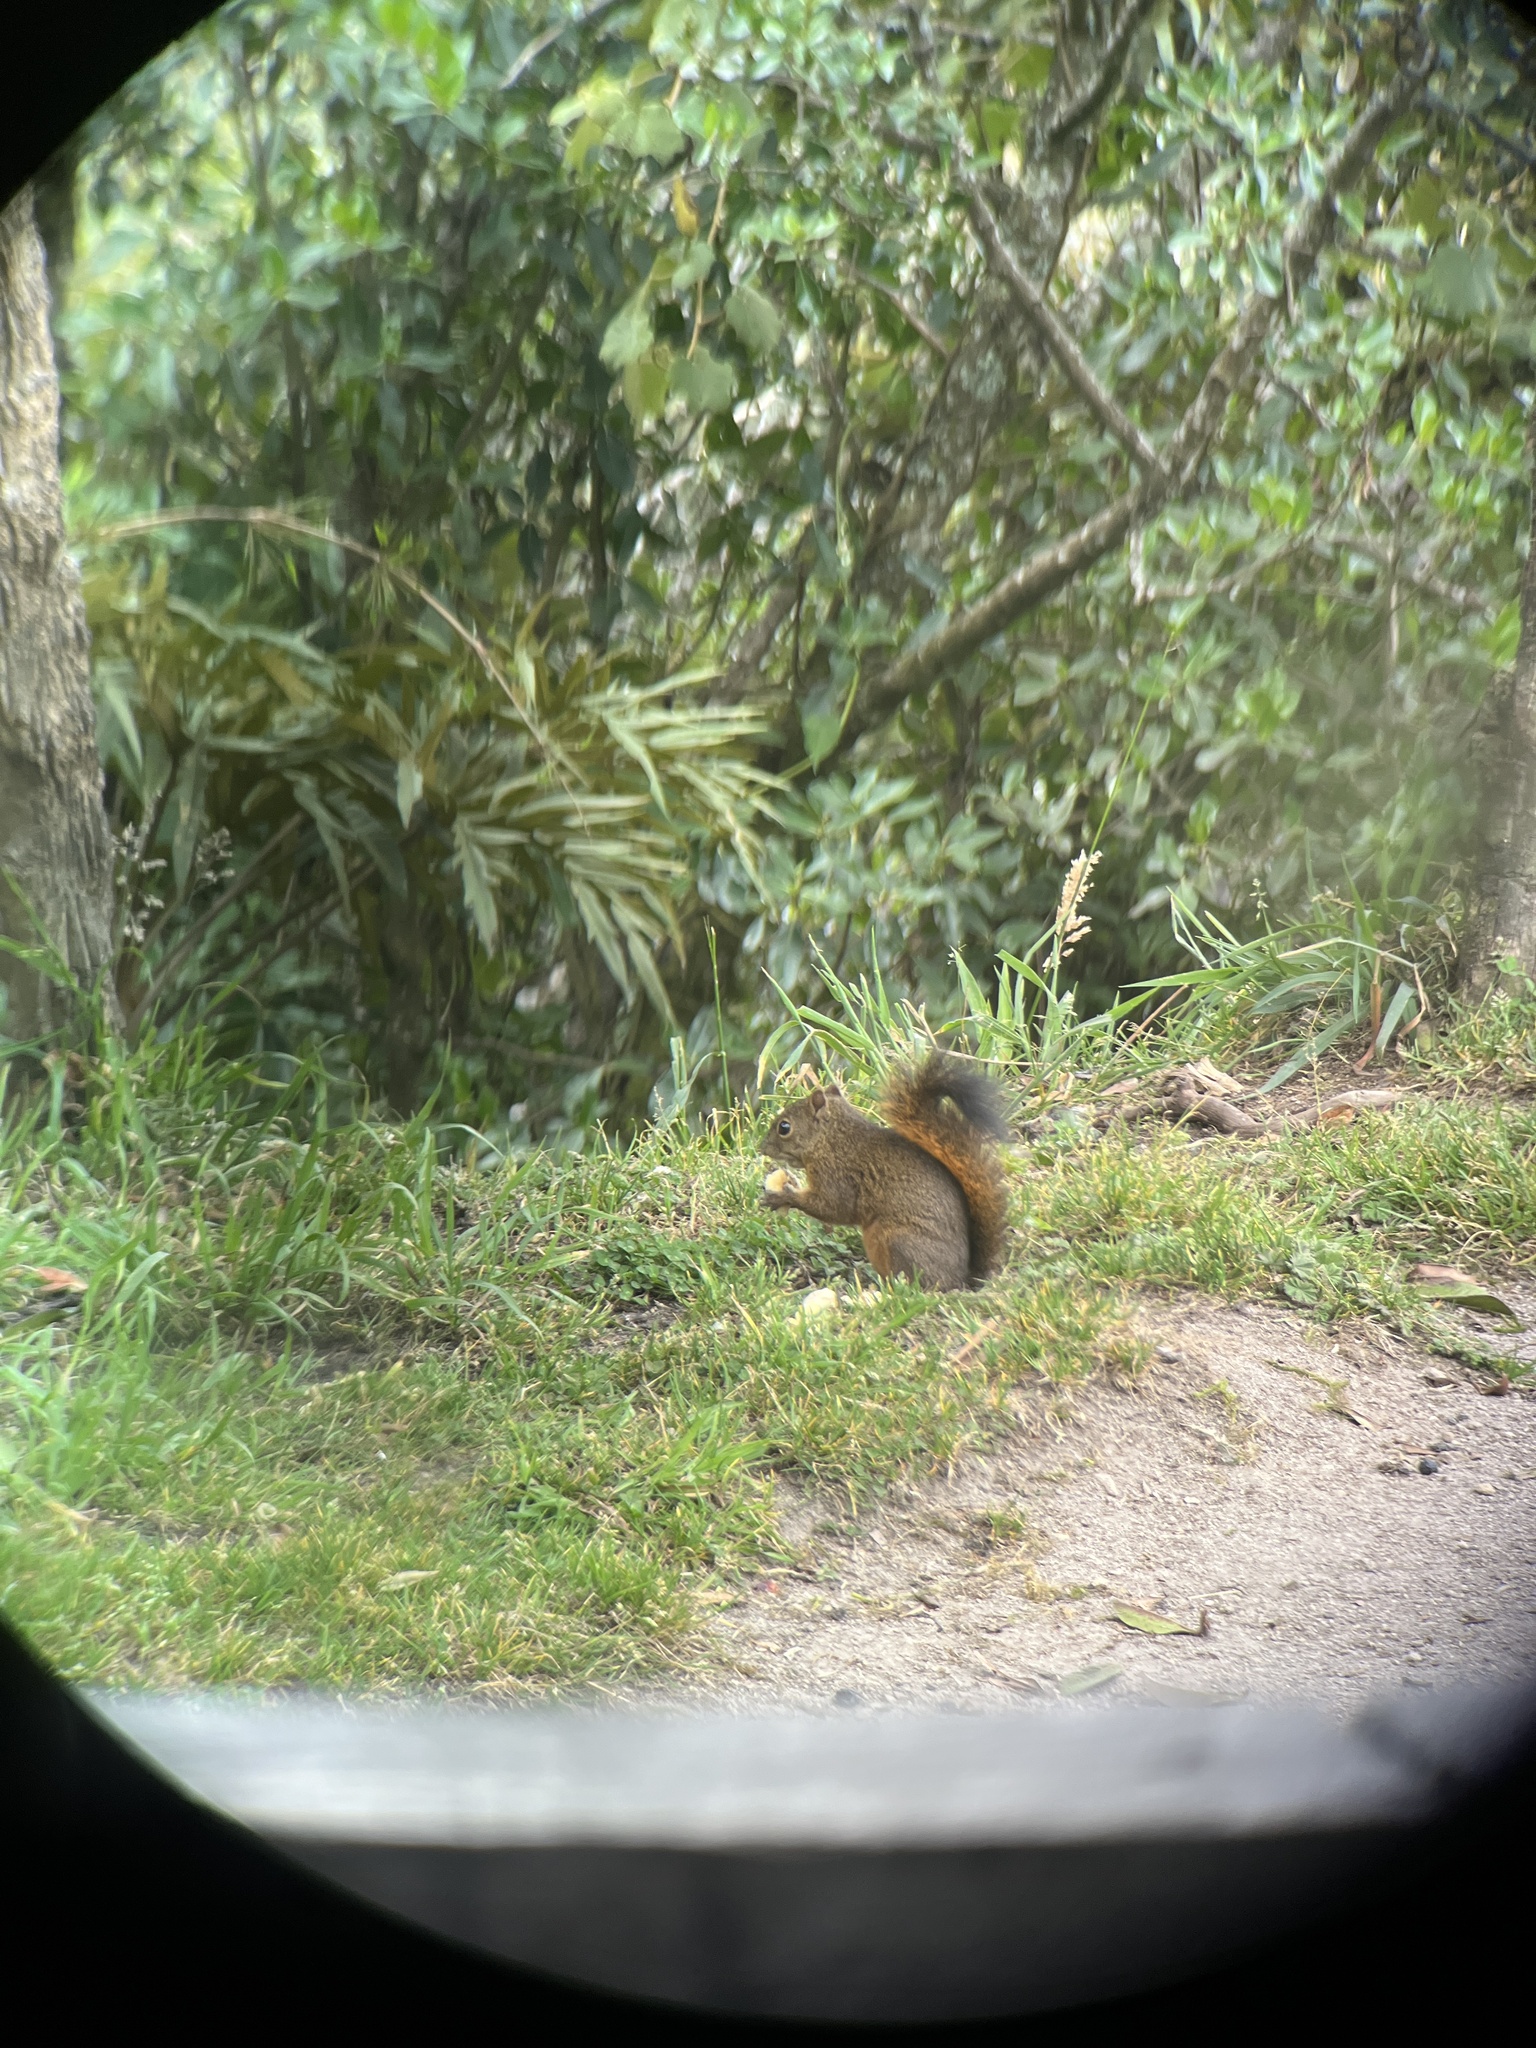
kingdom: Animalia
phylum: Chordata
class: Mammalia
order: Rodentia
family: Sciuridae
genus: Sciurus
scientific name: Sciurus granatensis
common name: Red-tailed squirrel
